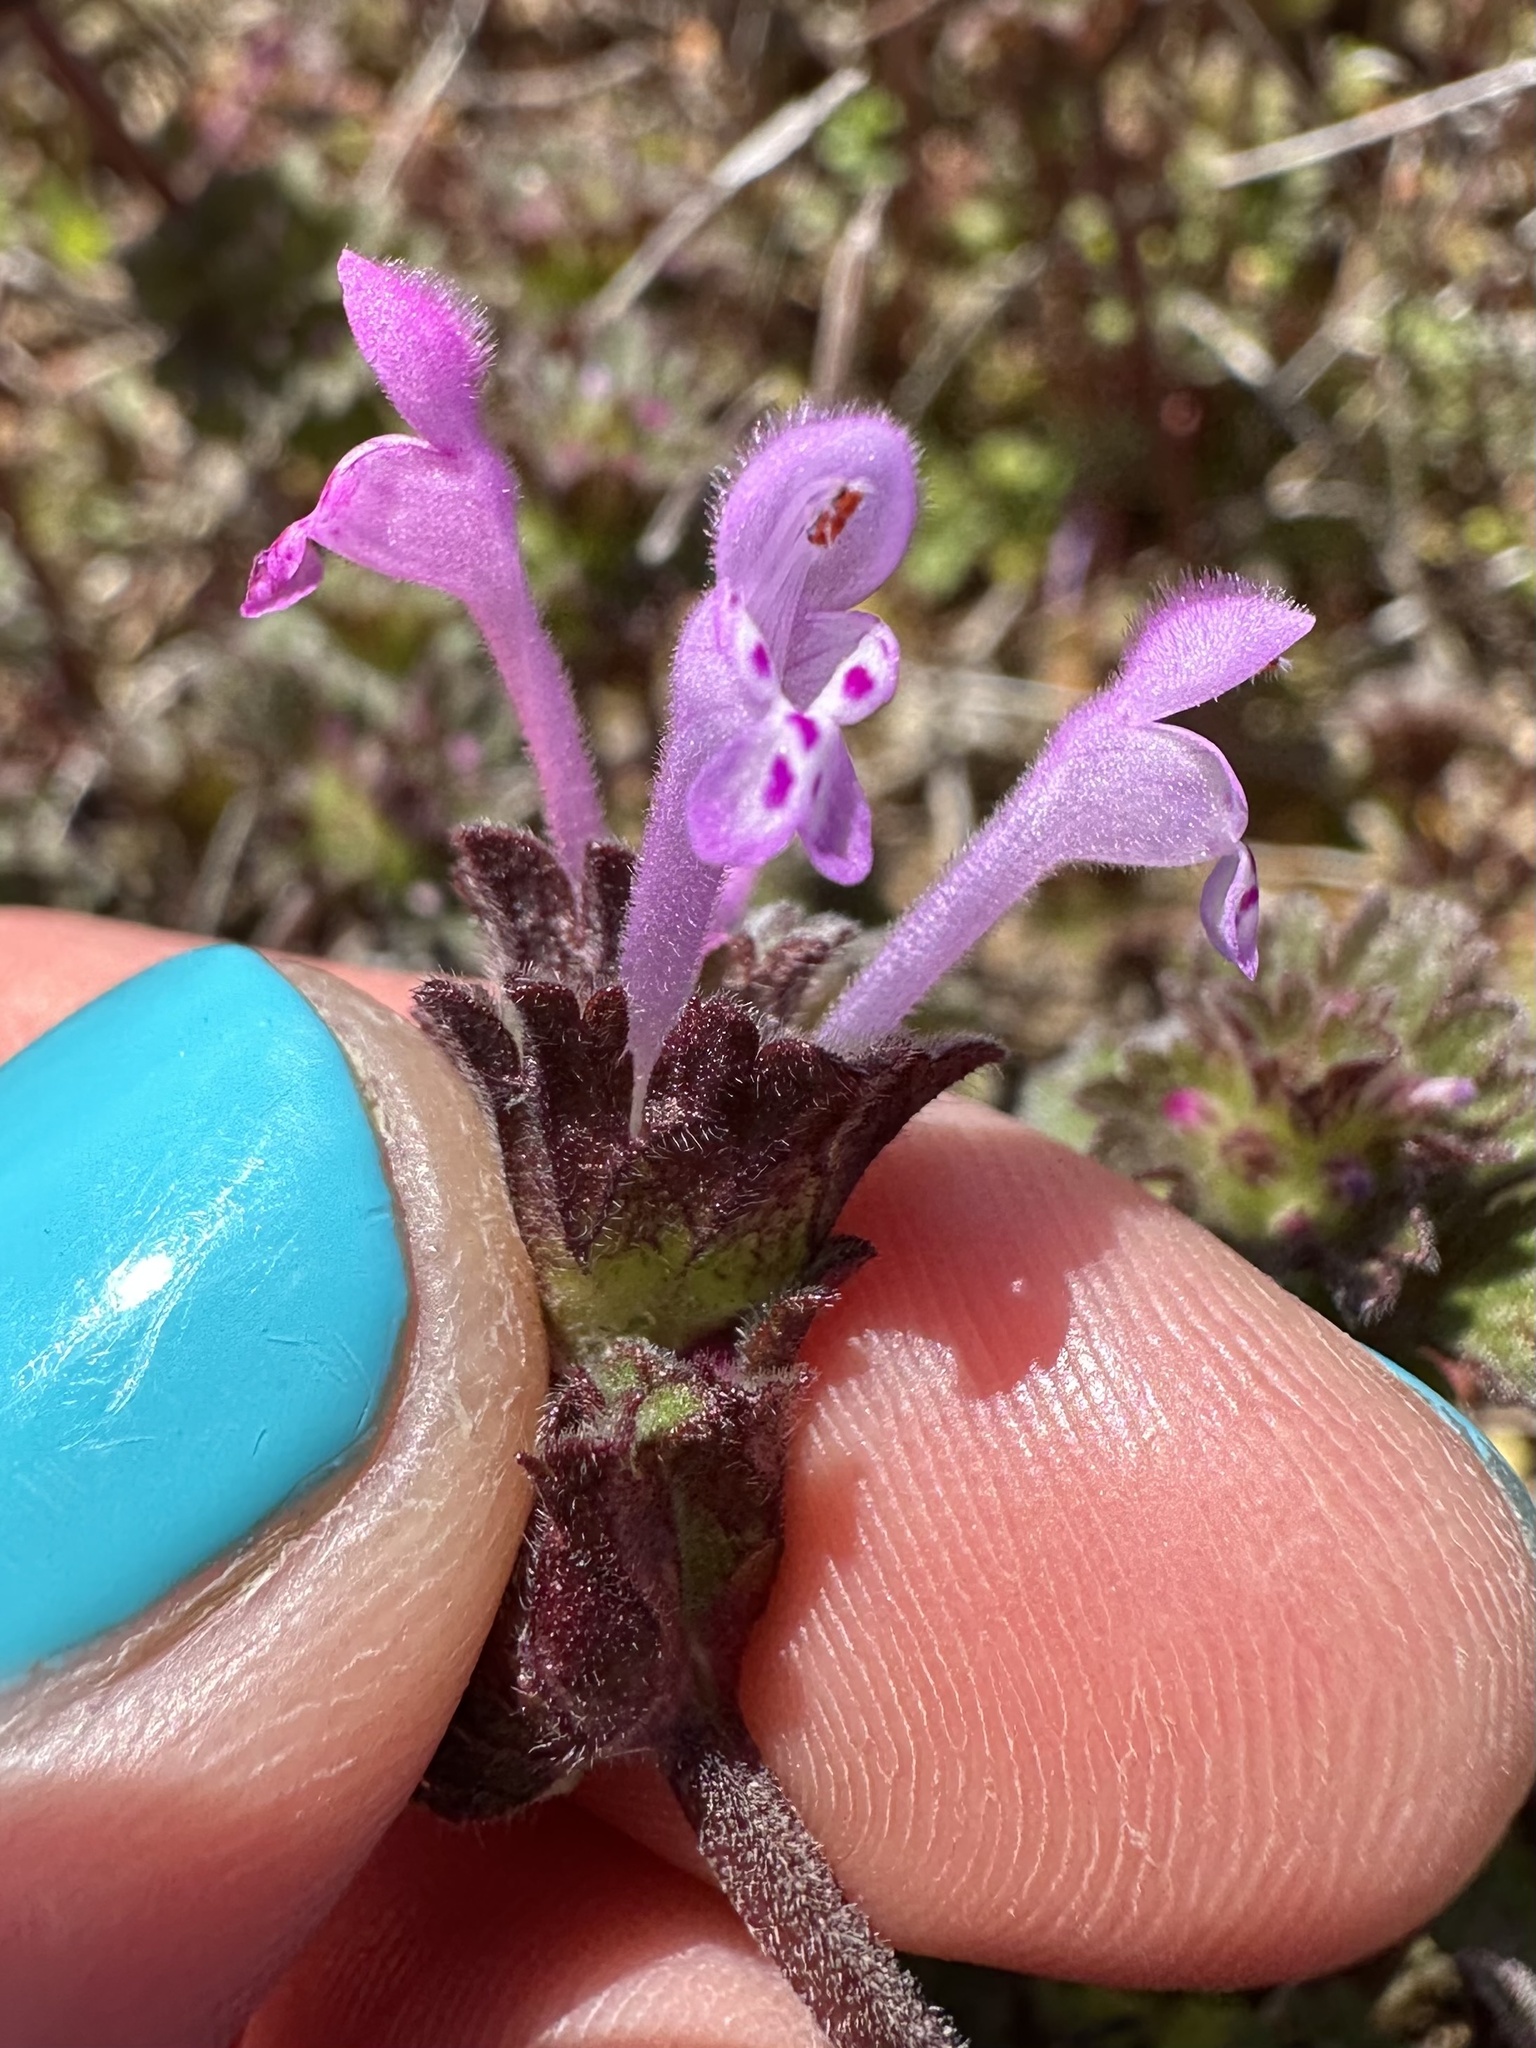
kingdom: Plantae
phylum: Tracheophyta
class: Magnoliopsida
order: Lamiales
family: Lamiaceae
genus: Lamium
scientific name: Lamium amplexicaule
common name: Henbit dead-nettle
